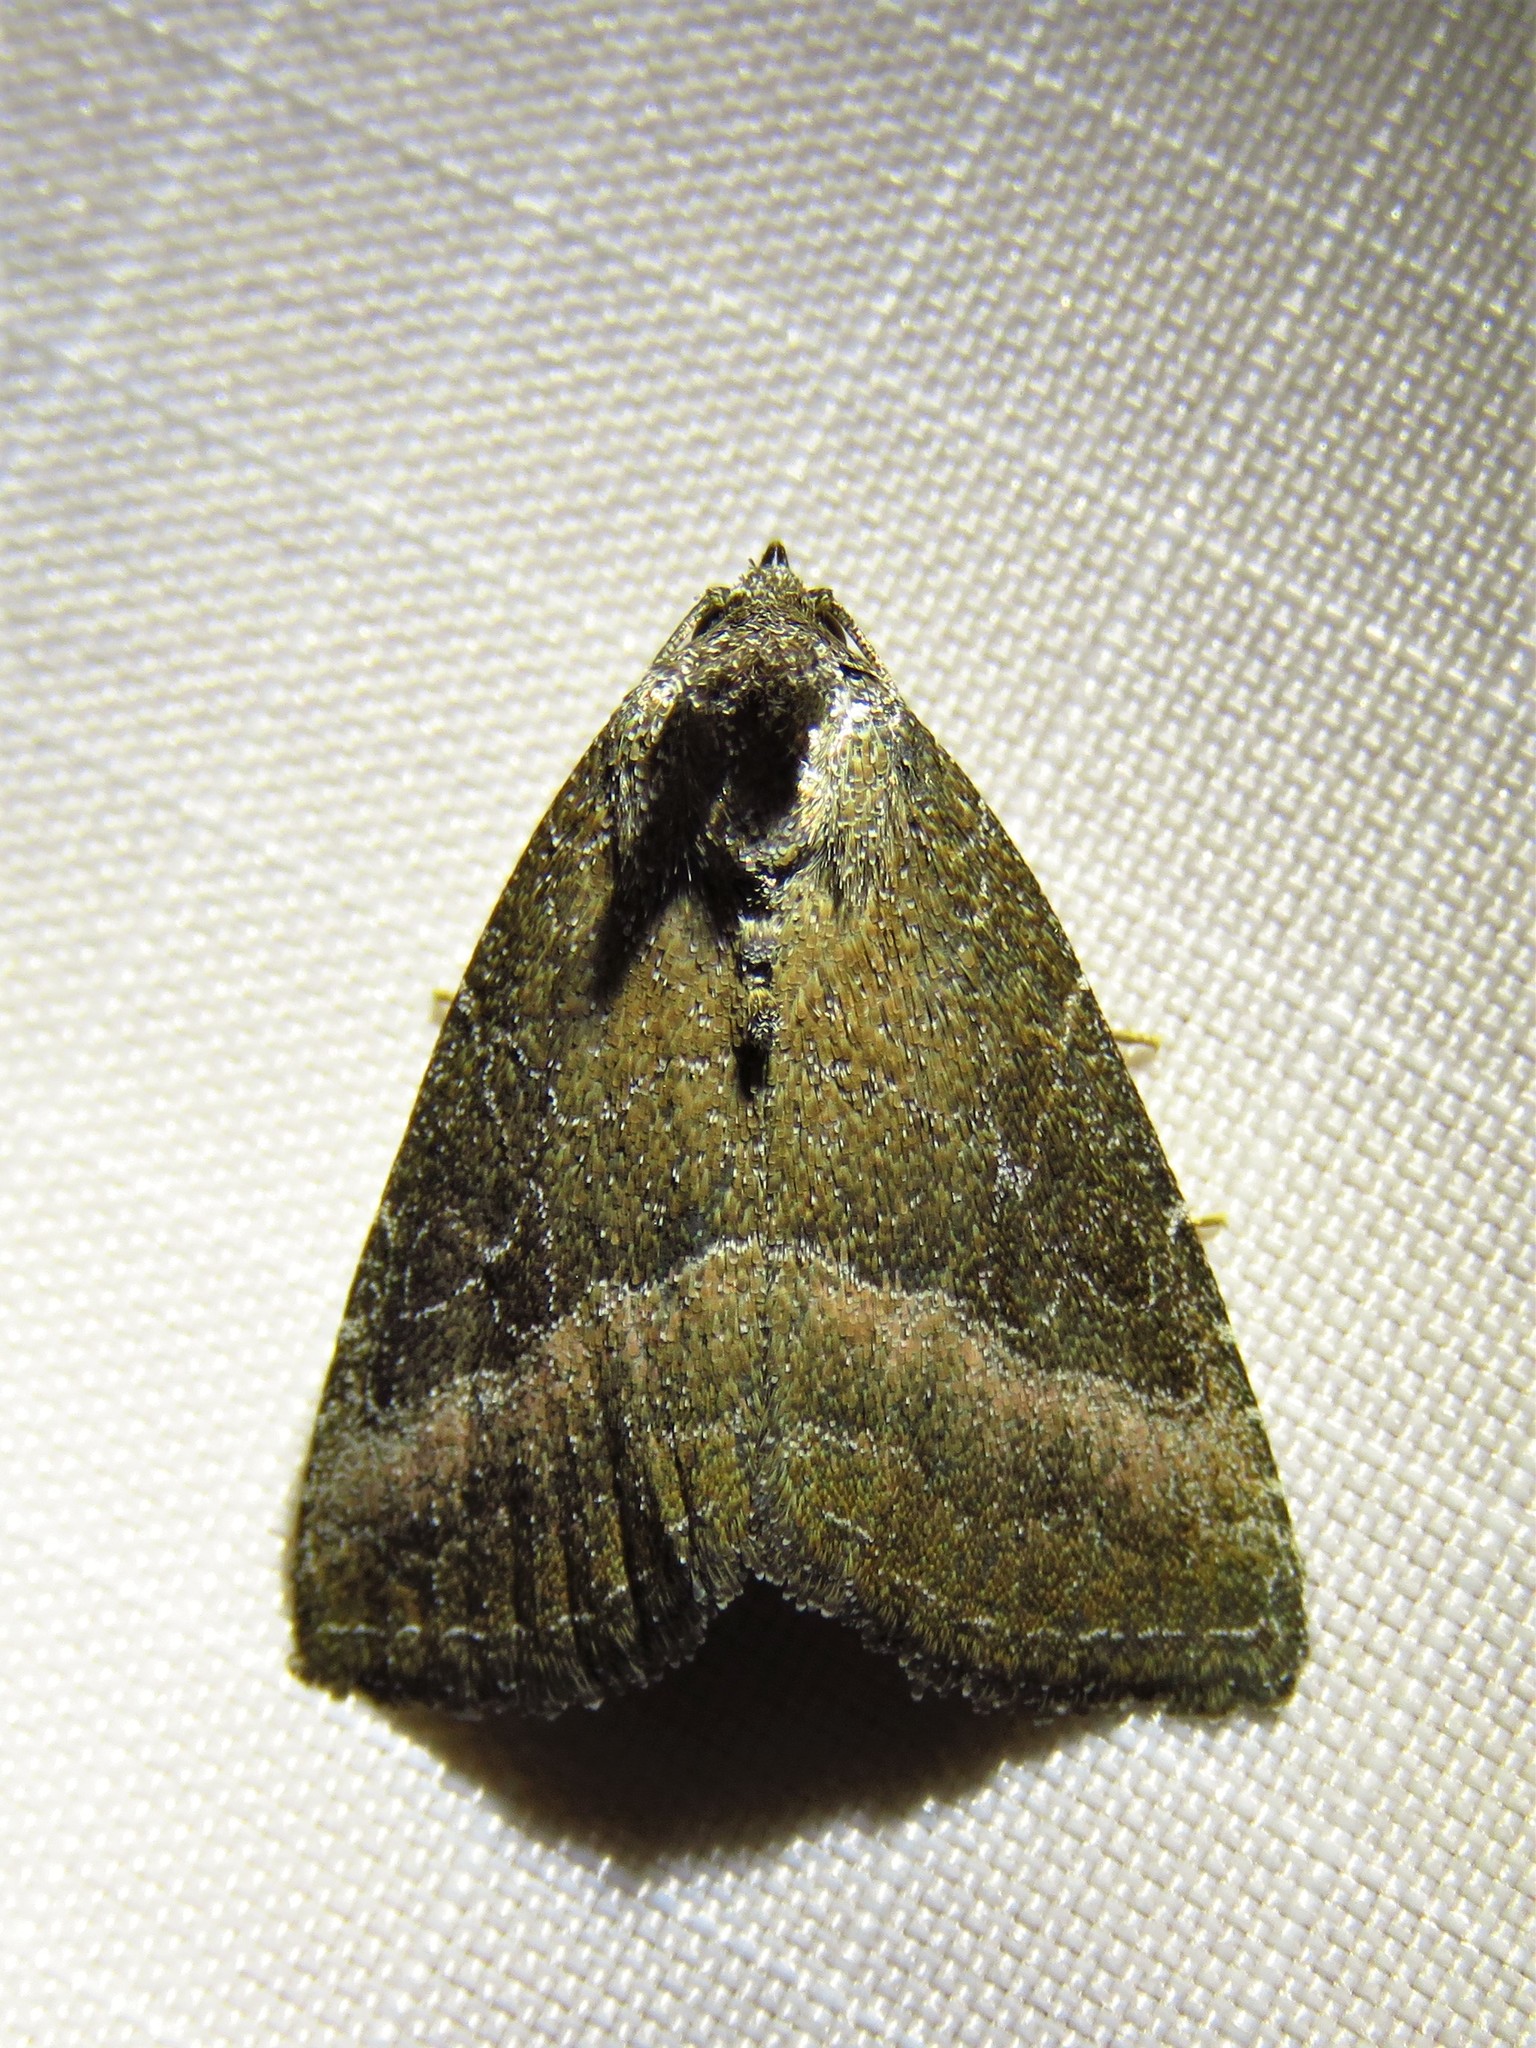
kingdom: Animalia
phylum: Arthropoda
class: Insecta
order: Lepidoptera
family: Noctuidae
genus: Ogdoconta
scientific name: Ogdoconta cinereola
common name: Common pinkband
